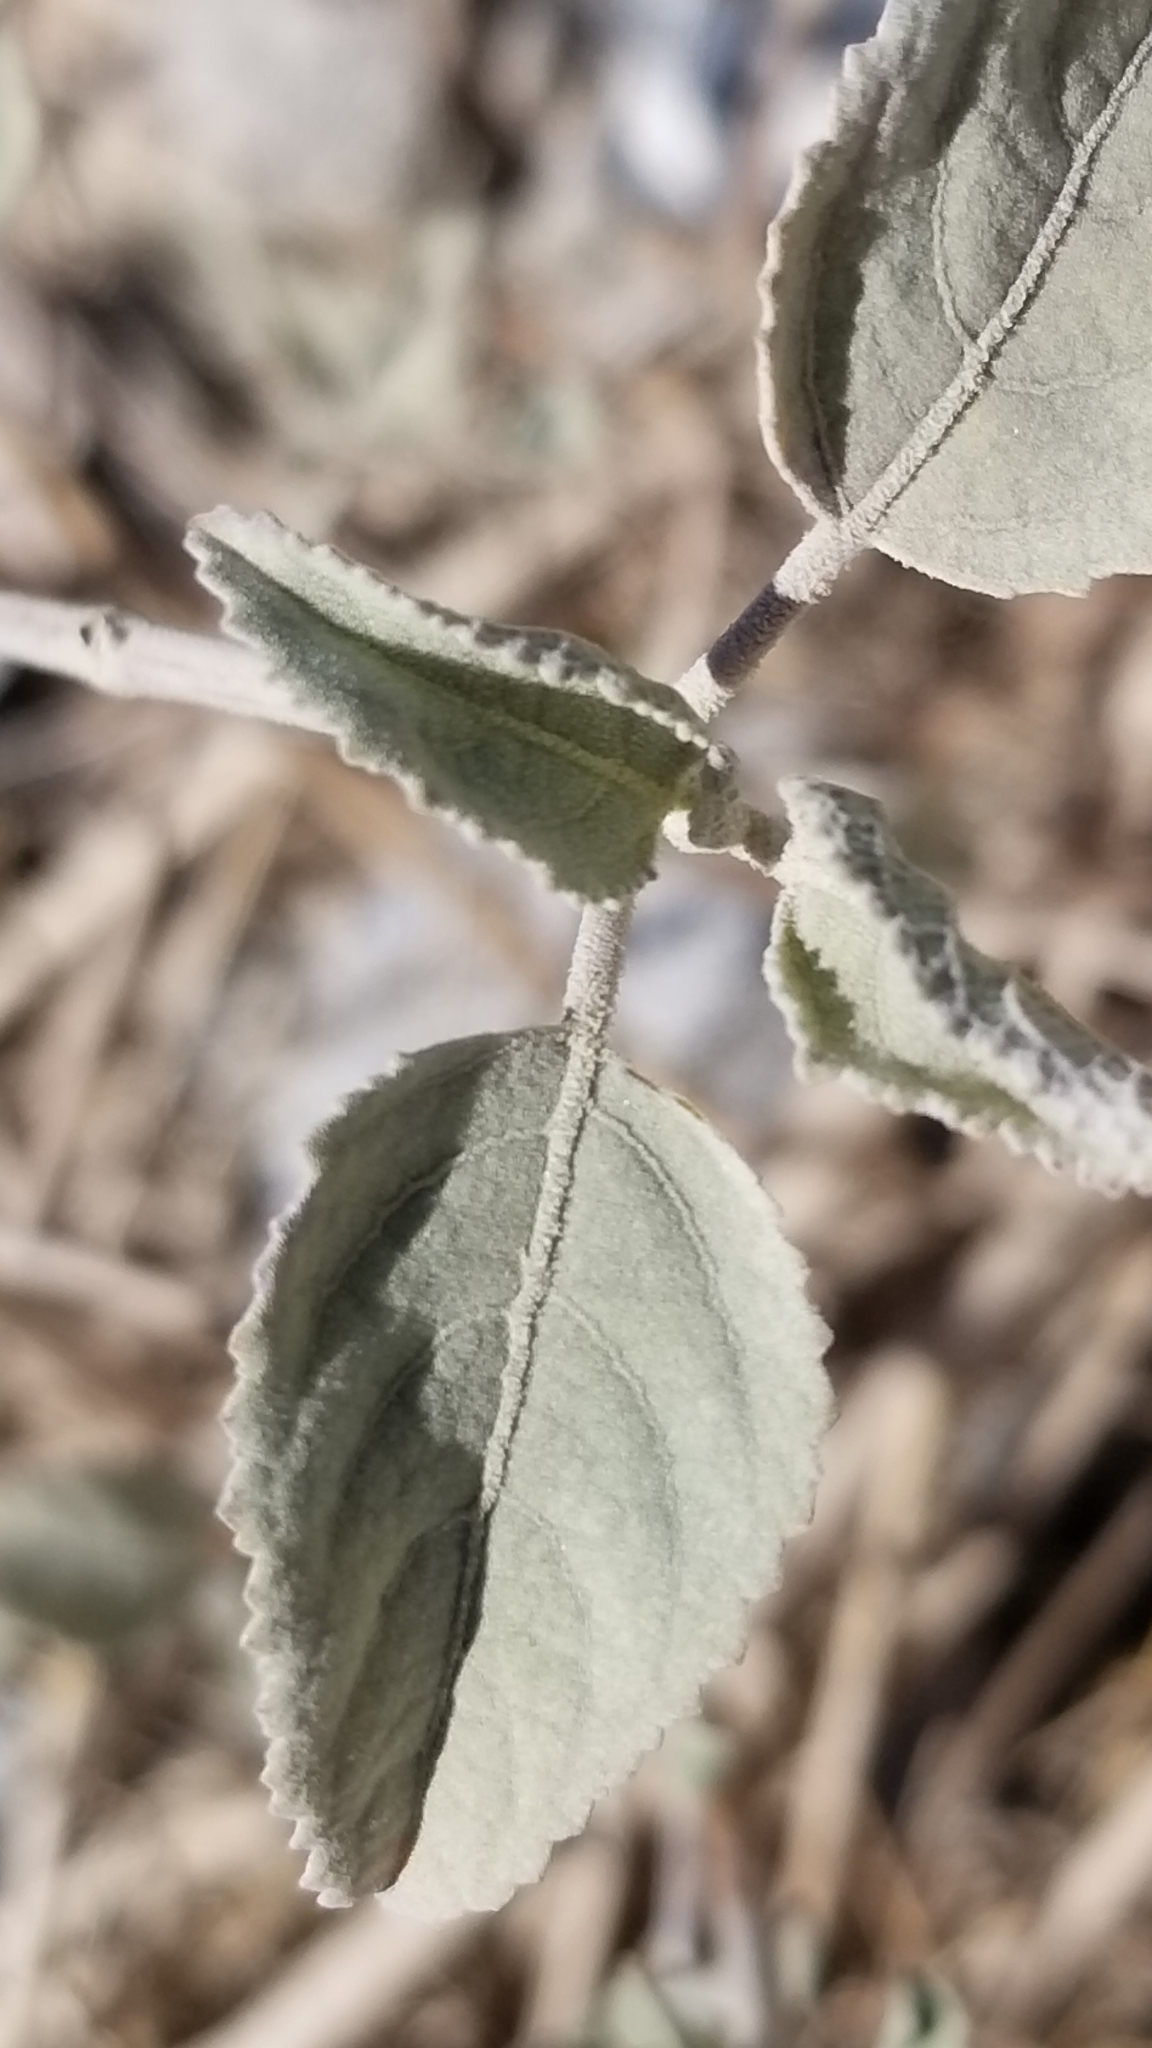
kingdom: Plantae
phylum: Tracheophyta
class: Magnoliopsida
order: Lamiales
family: Lamiaceae
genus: Condea
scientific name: Condea emoryi
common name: Chia
